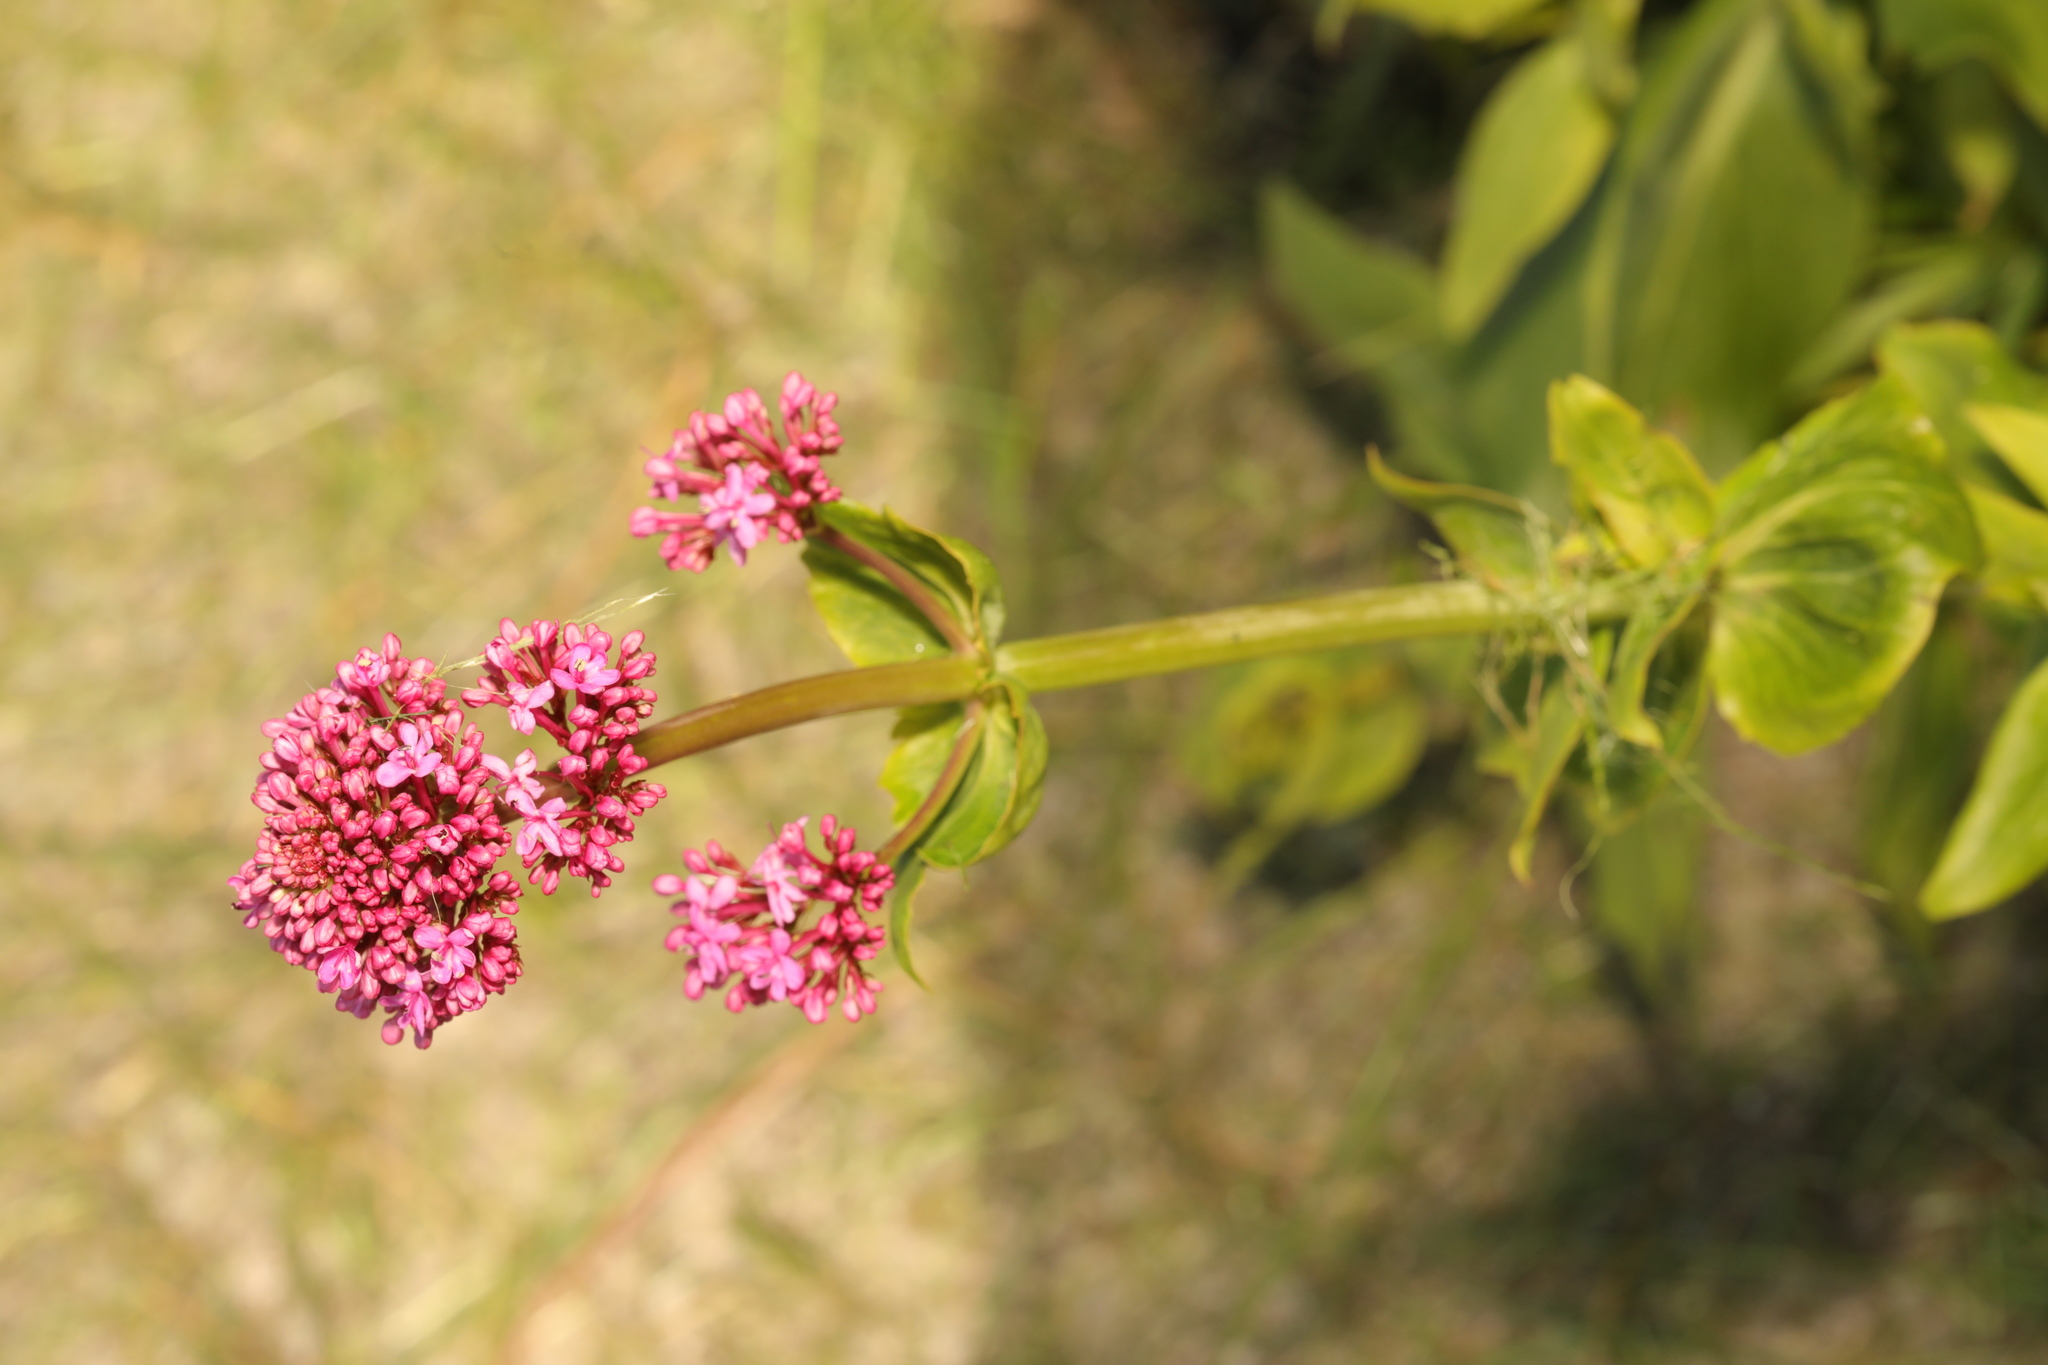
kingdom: Plantae
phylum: Tracheophyta
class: Magnoliopsida
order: Dipsacales
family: Caprifoliaceae
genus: Centranthus
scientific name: Centranthus ruber
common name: Red valerian
